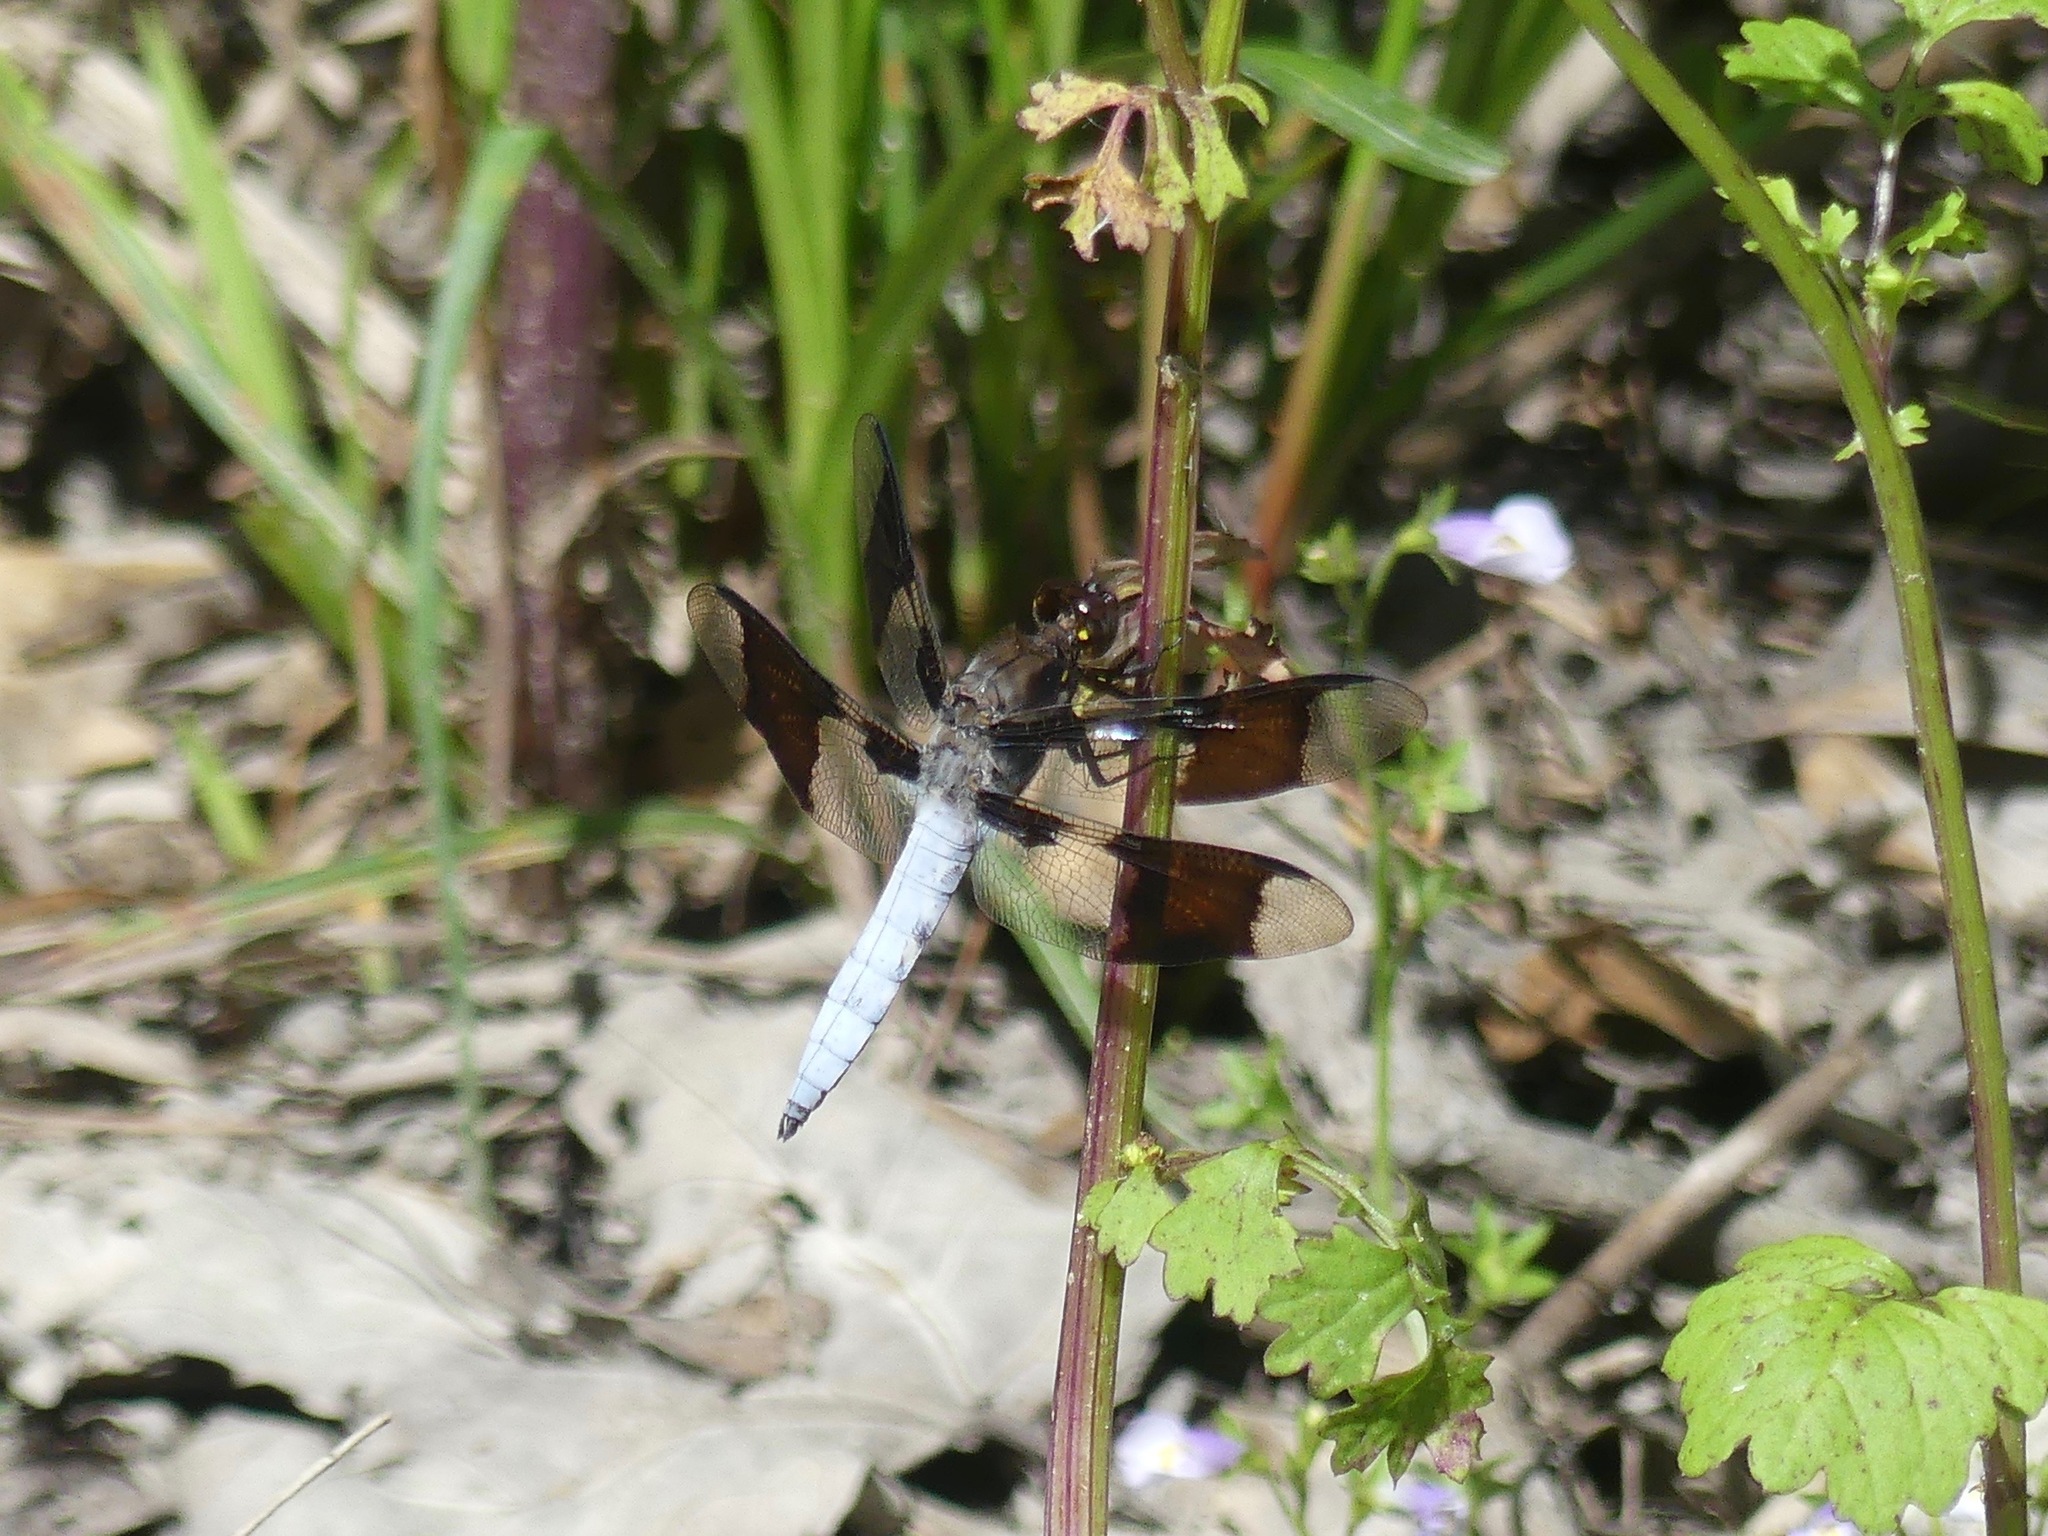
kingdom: Animalia
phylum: Arthropoda
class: Insecta
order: Odonata
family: Libellulidae
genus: Plathemis
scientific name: Plathemis lydia
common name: Common whitetail
